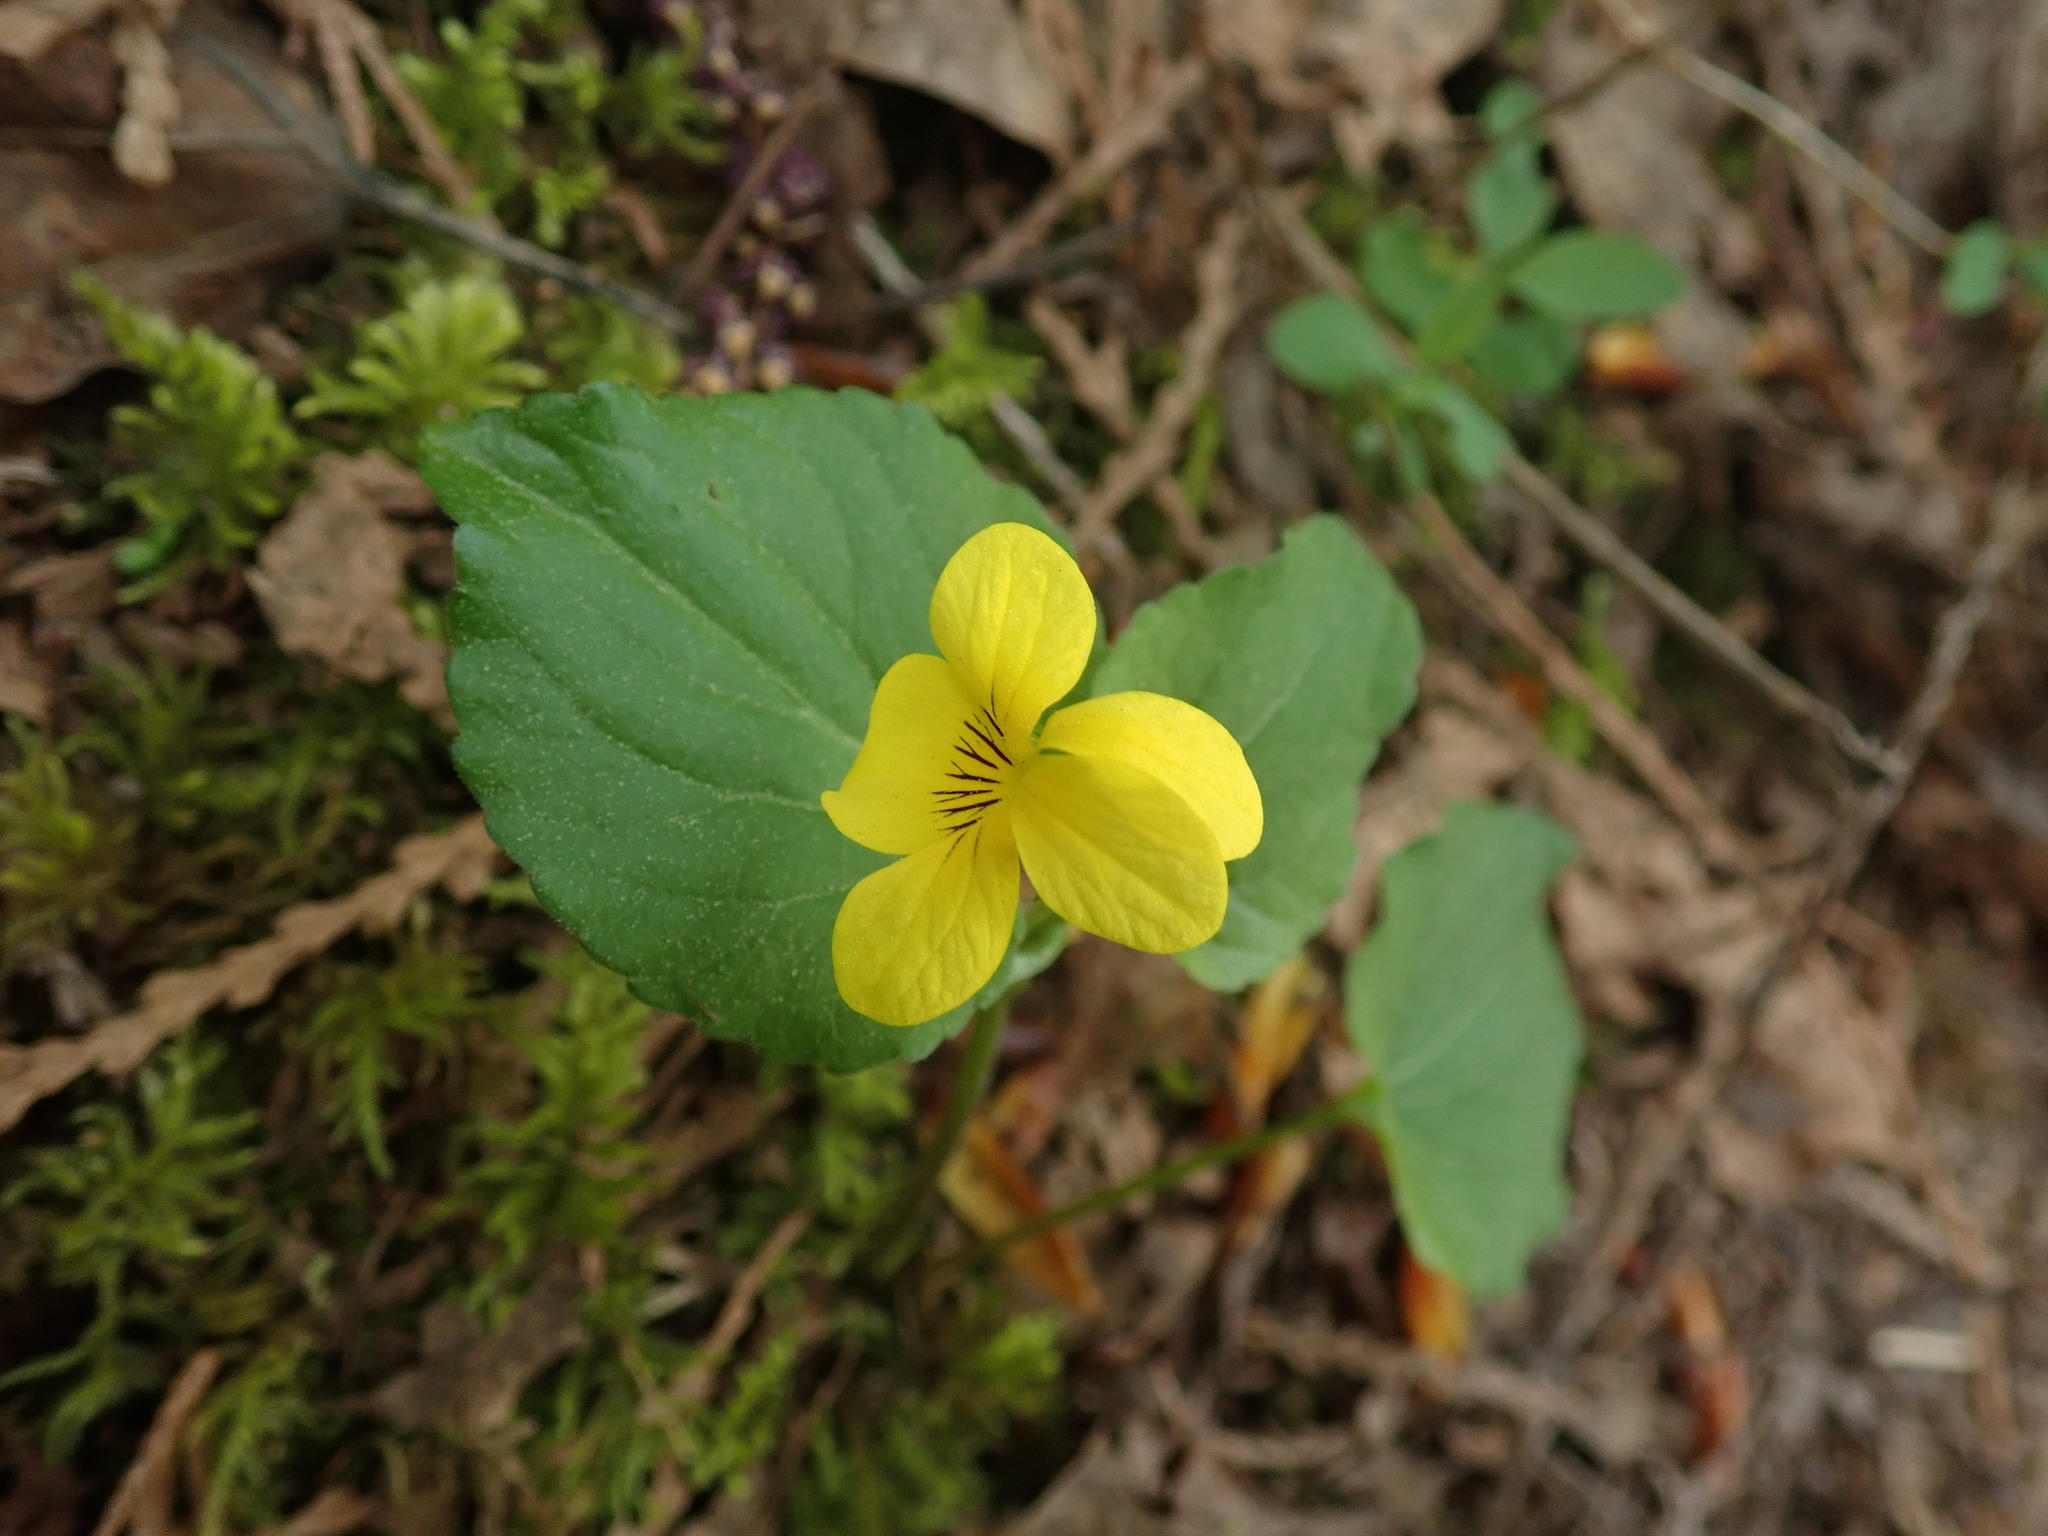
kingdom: Plantae
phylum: Tracheophyta
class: Magnoliopsida
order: Malpighiales
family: Violaceae
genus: Viola
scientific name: Viola glabella
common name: Stream violet
